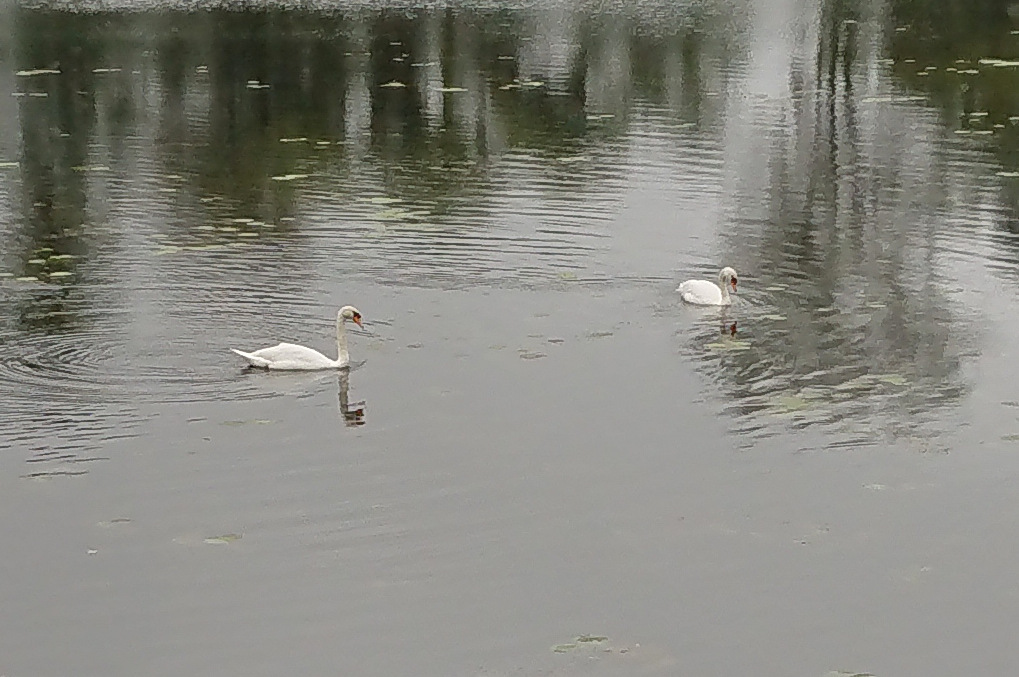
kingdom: Animalia
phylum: Chordata
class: Aves
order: Anseriformes
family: Anatidae
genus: Cygnus
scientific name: Cygnus olor
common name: Mute swan
